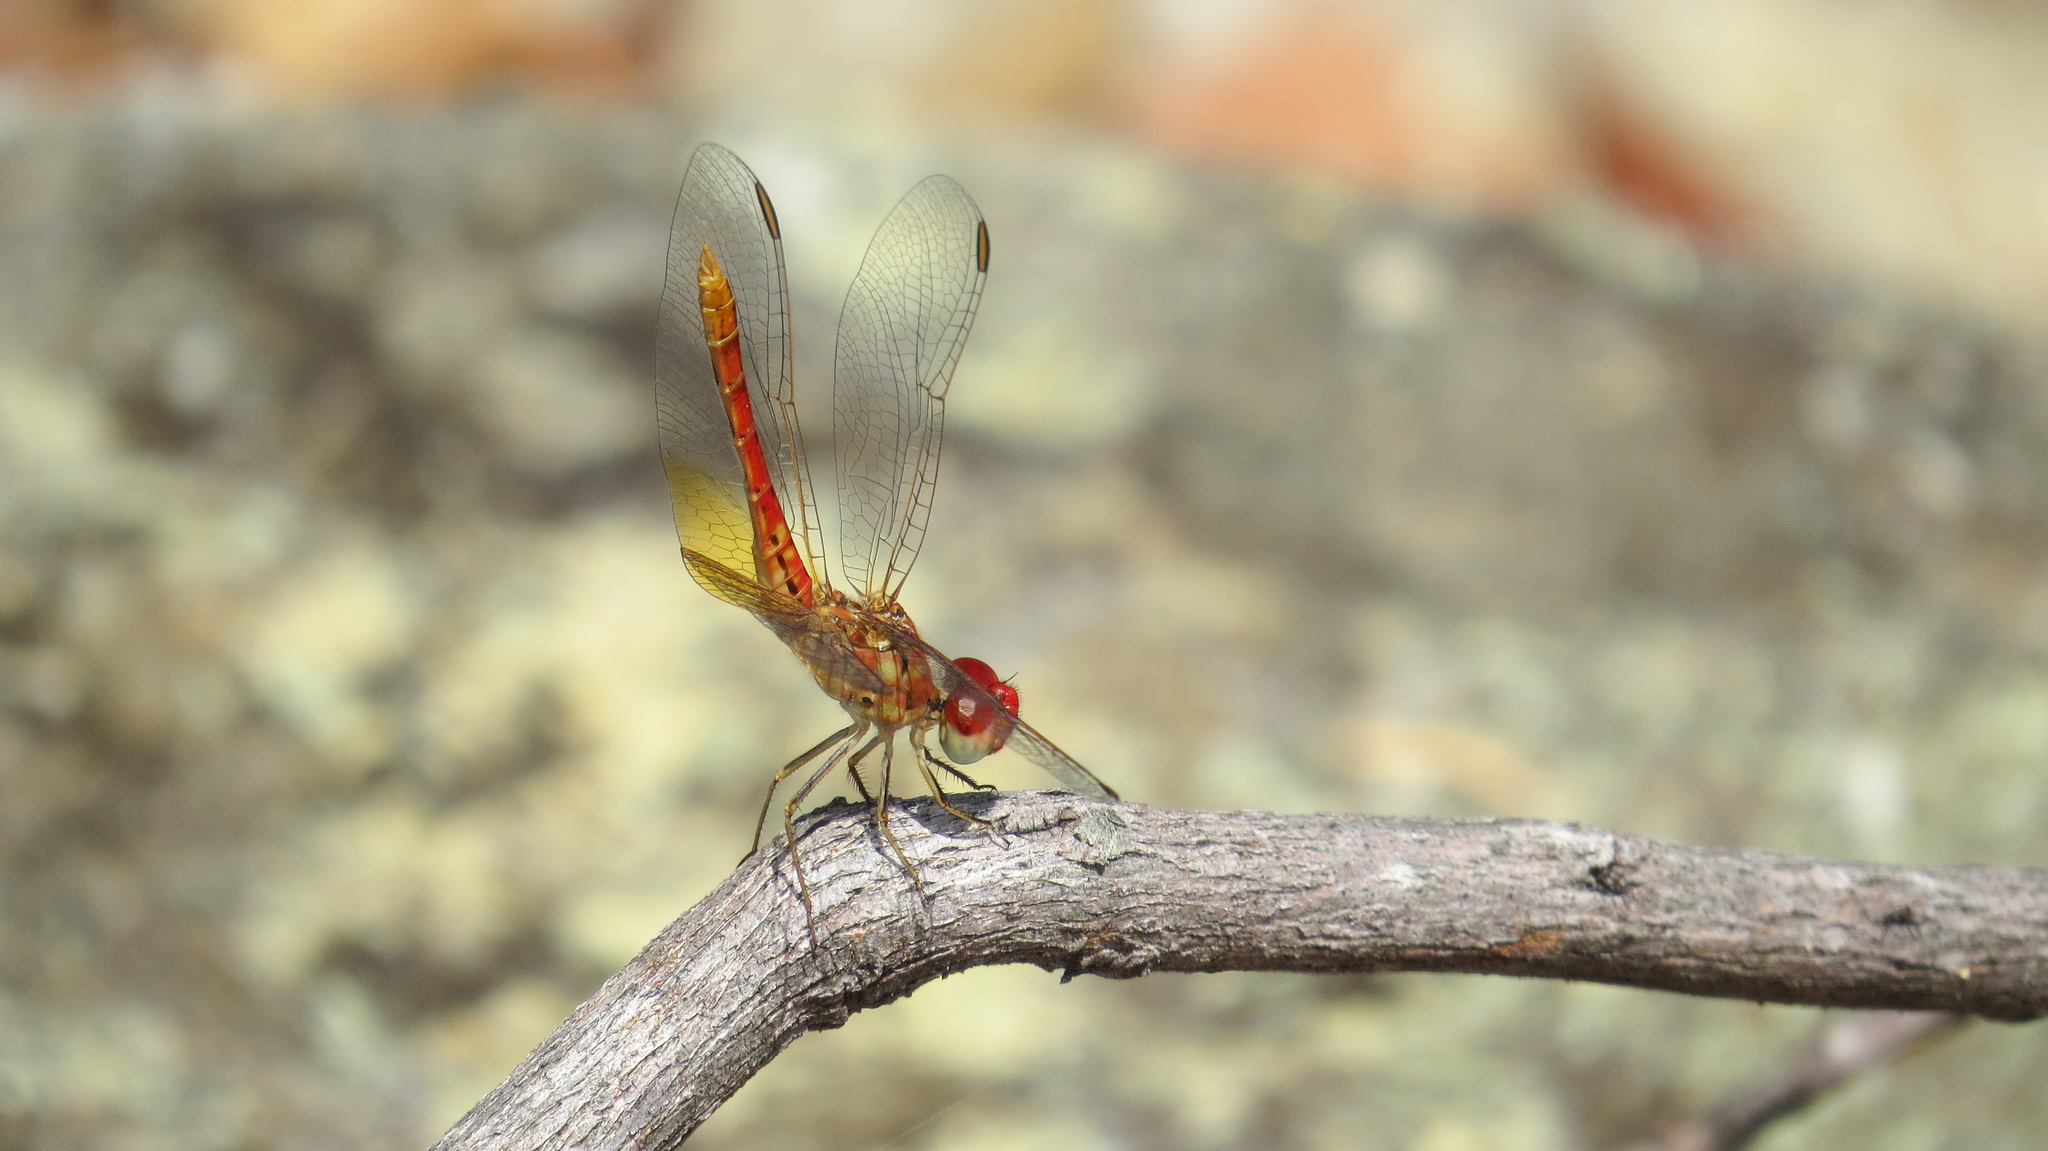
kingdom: Animalia
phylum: Arthropoda
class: Insecta
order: Odonata
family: Libellulidae
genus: Diplacodes
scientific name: Diplacodes haematodes
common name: Scarlet percher
